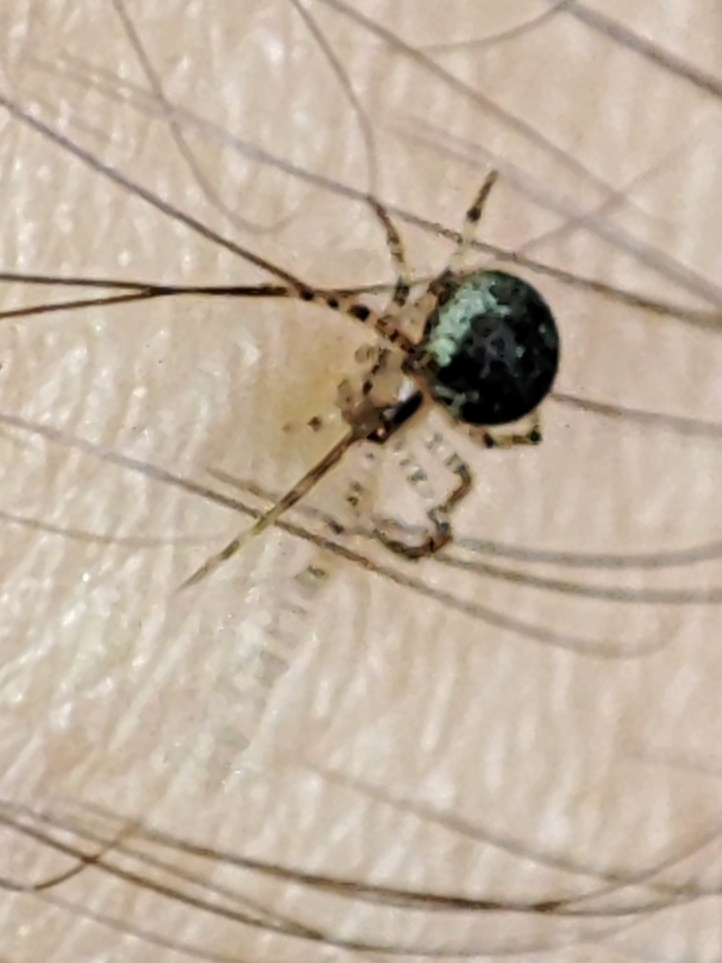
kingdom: Animalia
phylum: Arthropoda
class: Arachnida
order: Araneae
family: Theridiidae
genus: Platnickina
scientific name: Platnickina tincta
